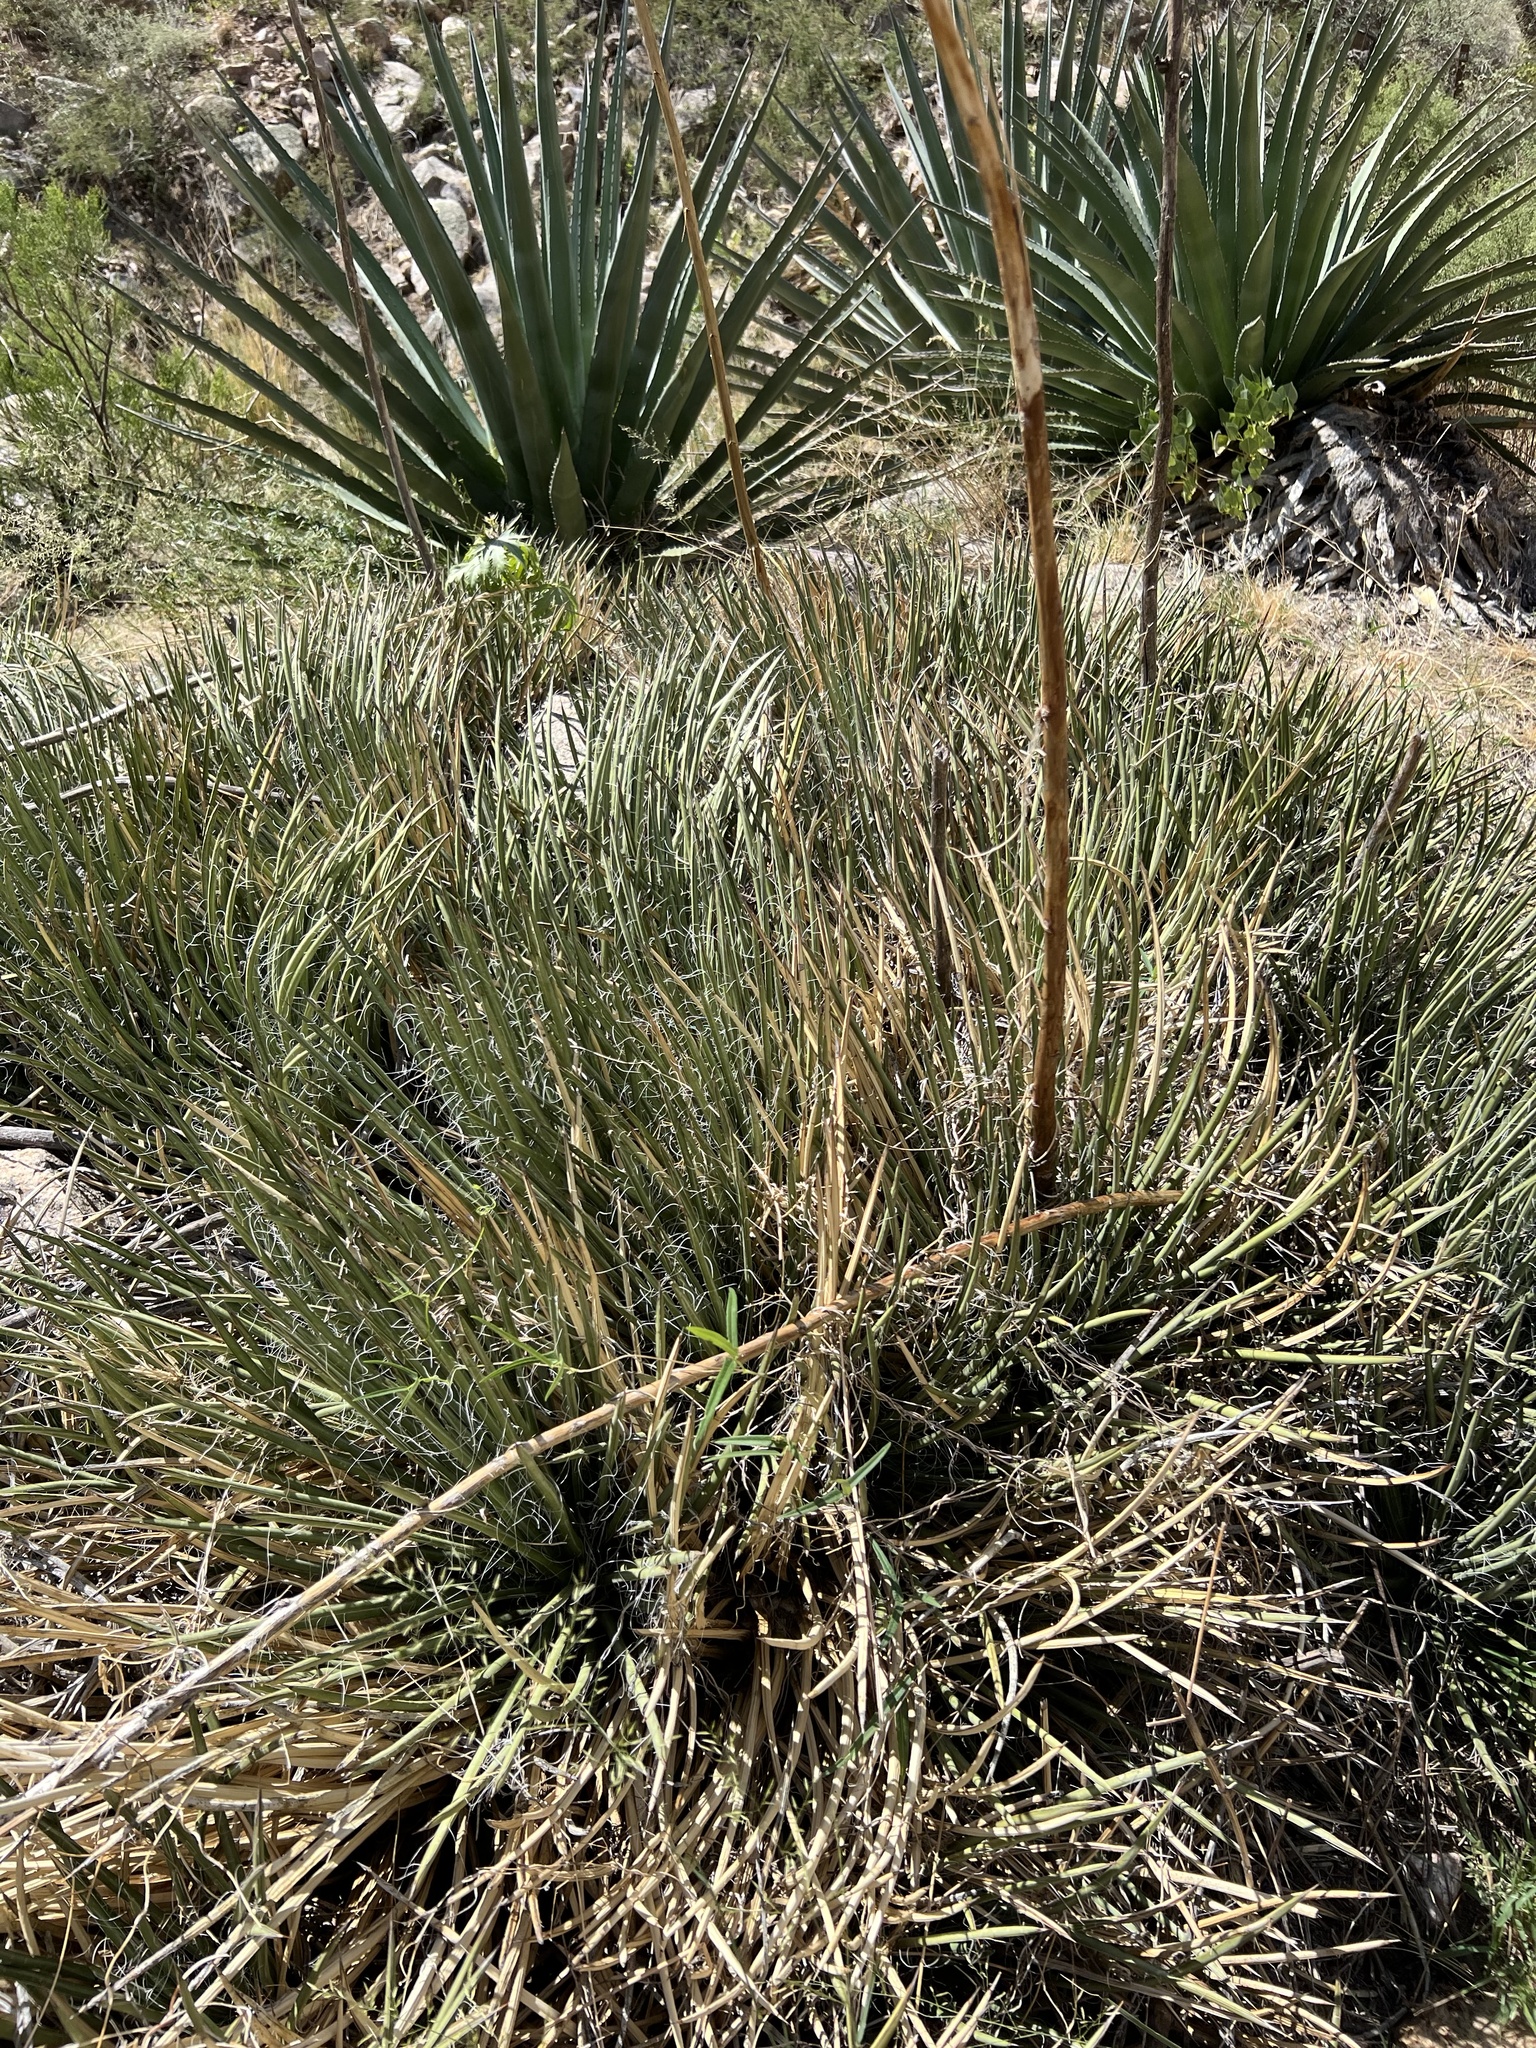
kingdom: Plantae
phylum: Tracheophyta
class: Liliopsida
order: Asparagales
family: Asparagaceae
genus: Agave
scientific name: Agave schottii
